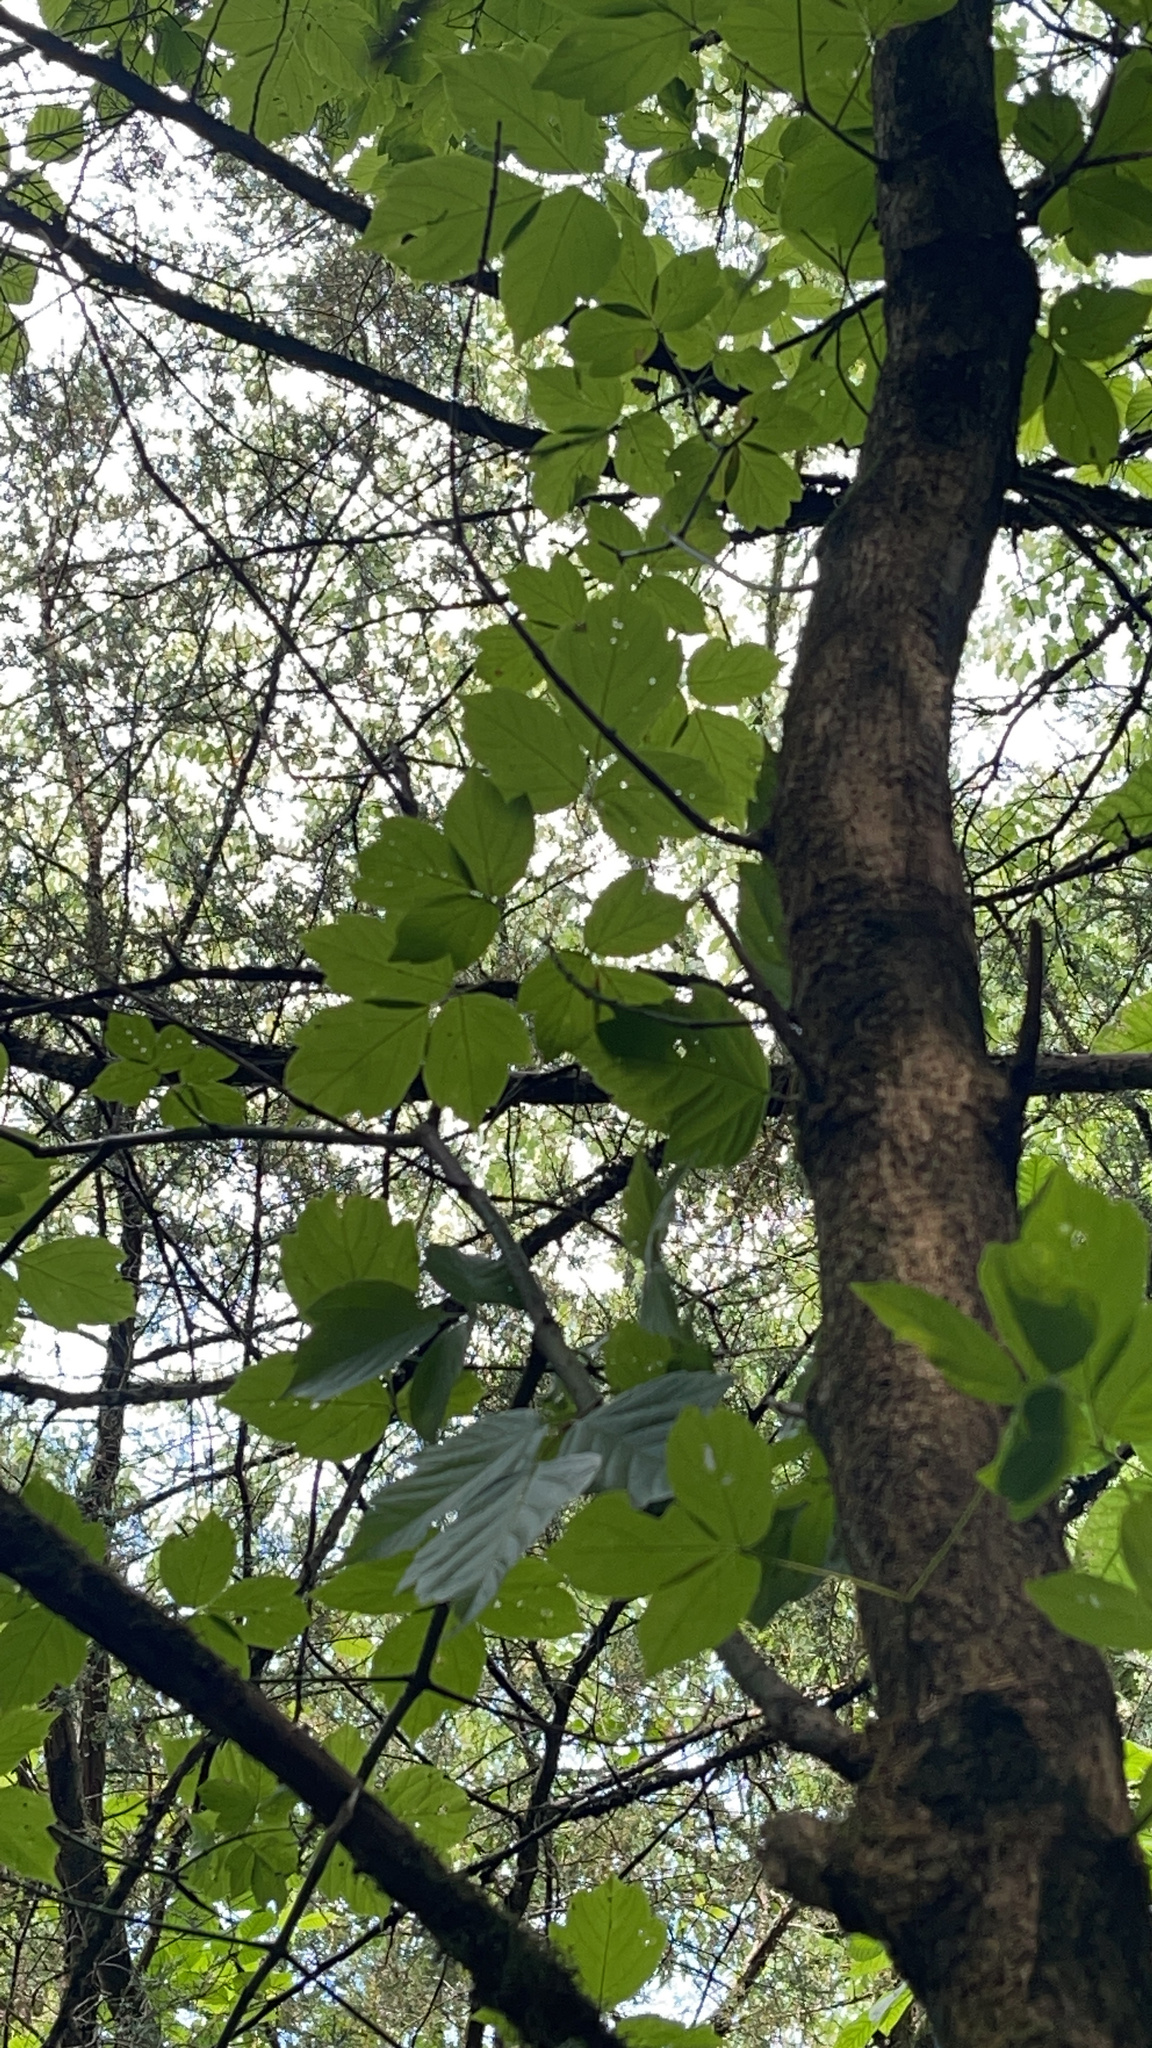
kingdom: Plantae
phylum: Tracheophyta
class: Magnoliopsida
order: Sapindales
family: Sapindaceae
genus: Acer
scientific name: Acer negundo
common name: Ashleaf maple
